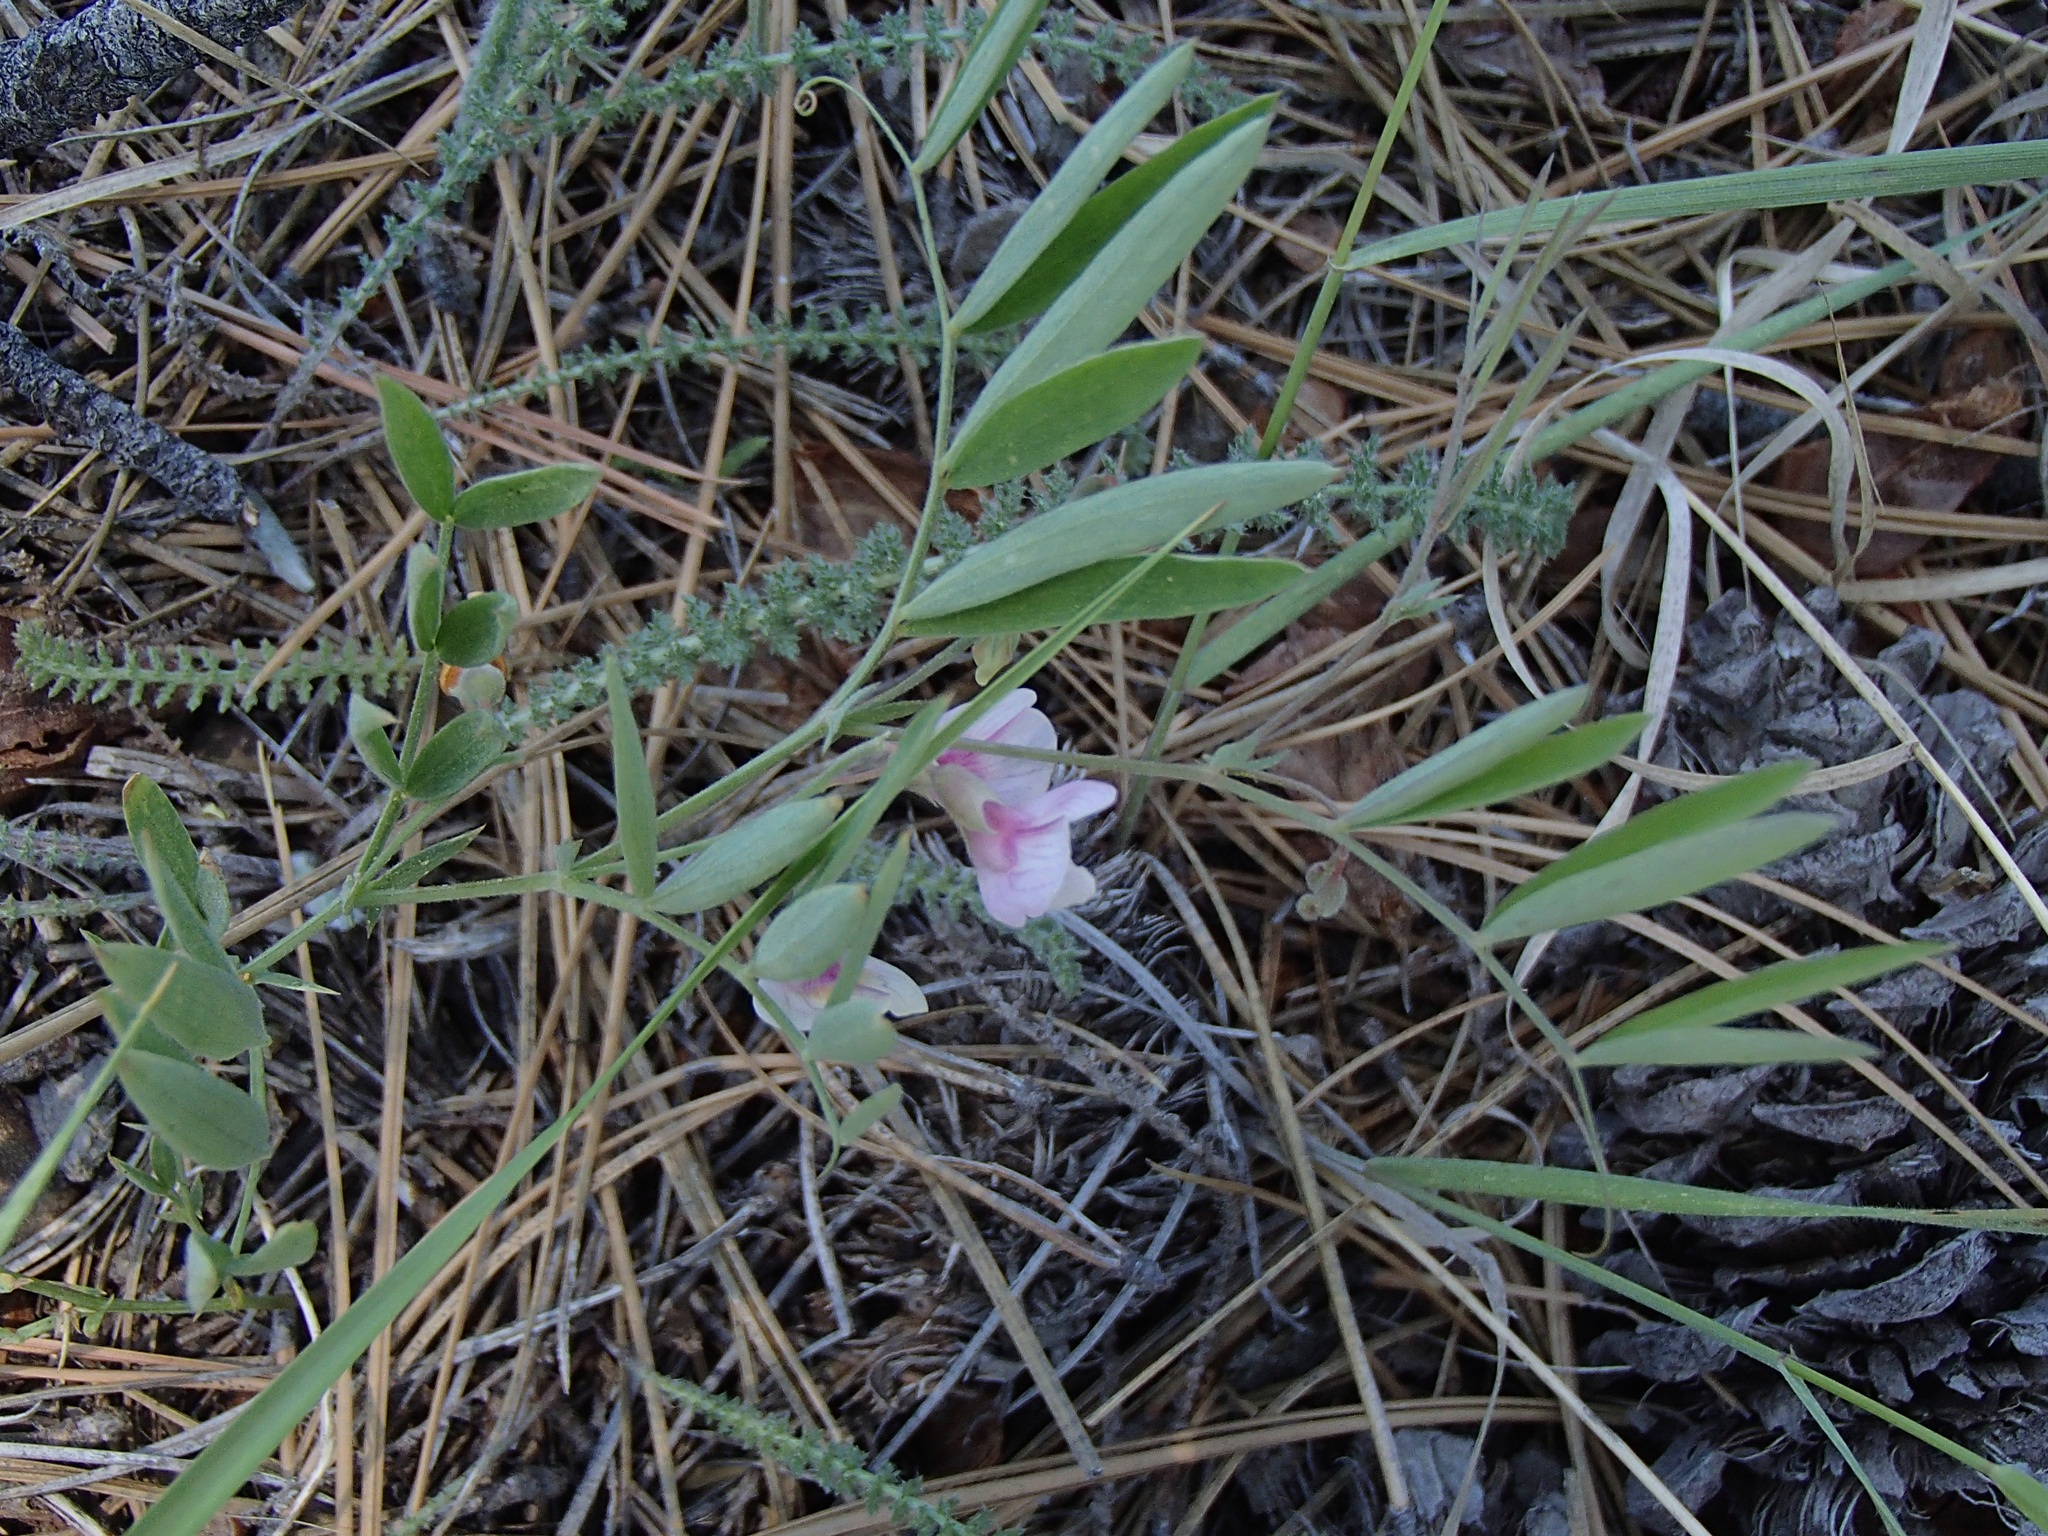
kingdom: Plantae
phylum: Tracheophyta
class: Magnoliopsida
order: Fabales
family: Fabaceae
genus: Lathyrus
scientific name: Lathyrus lanszwertii
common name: Lanszwert's vetchling
